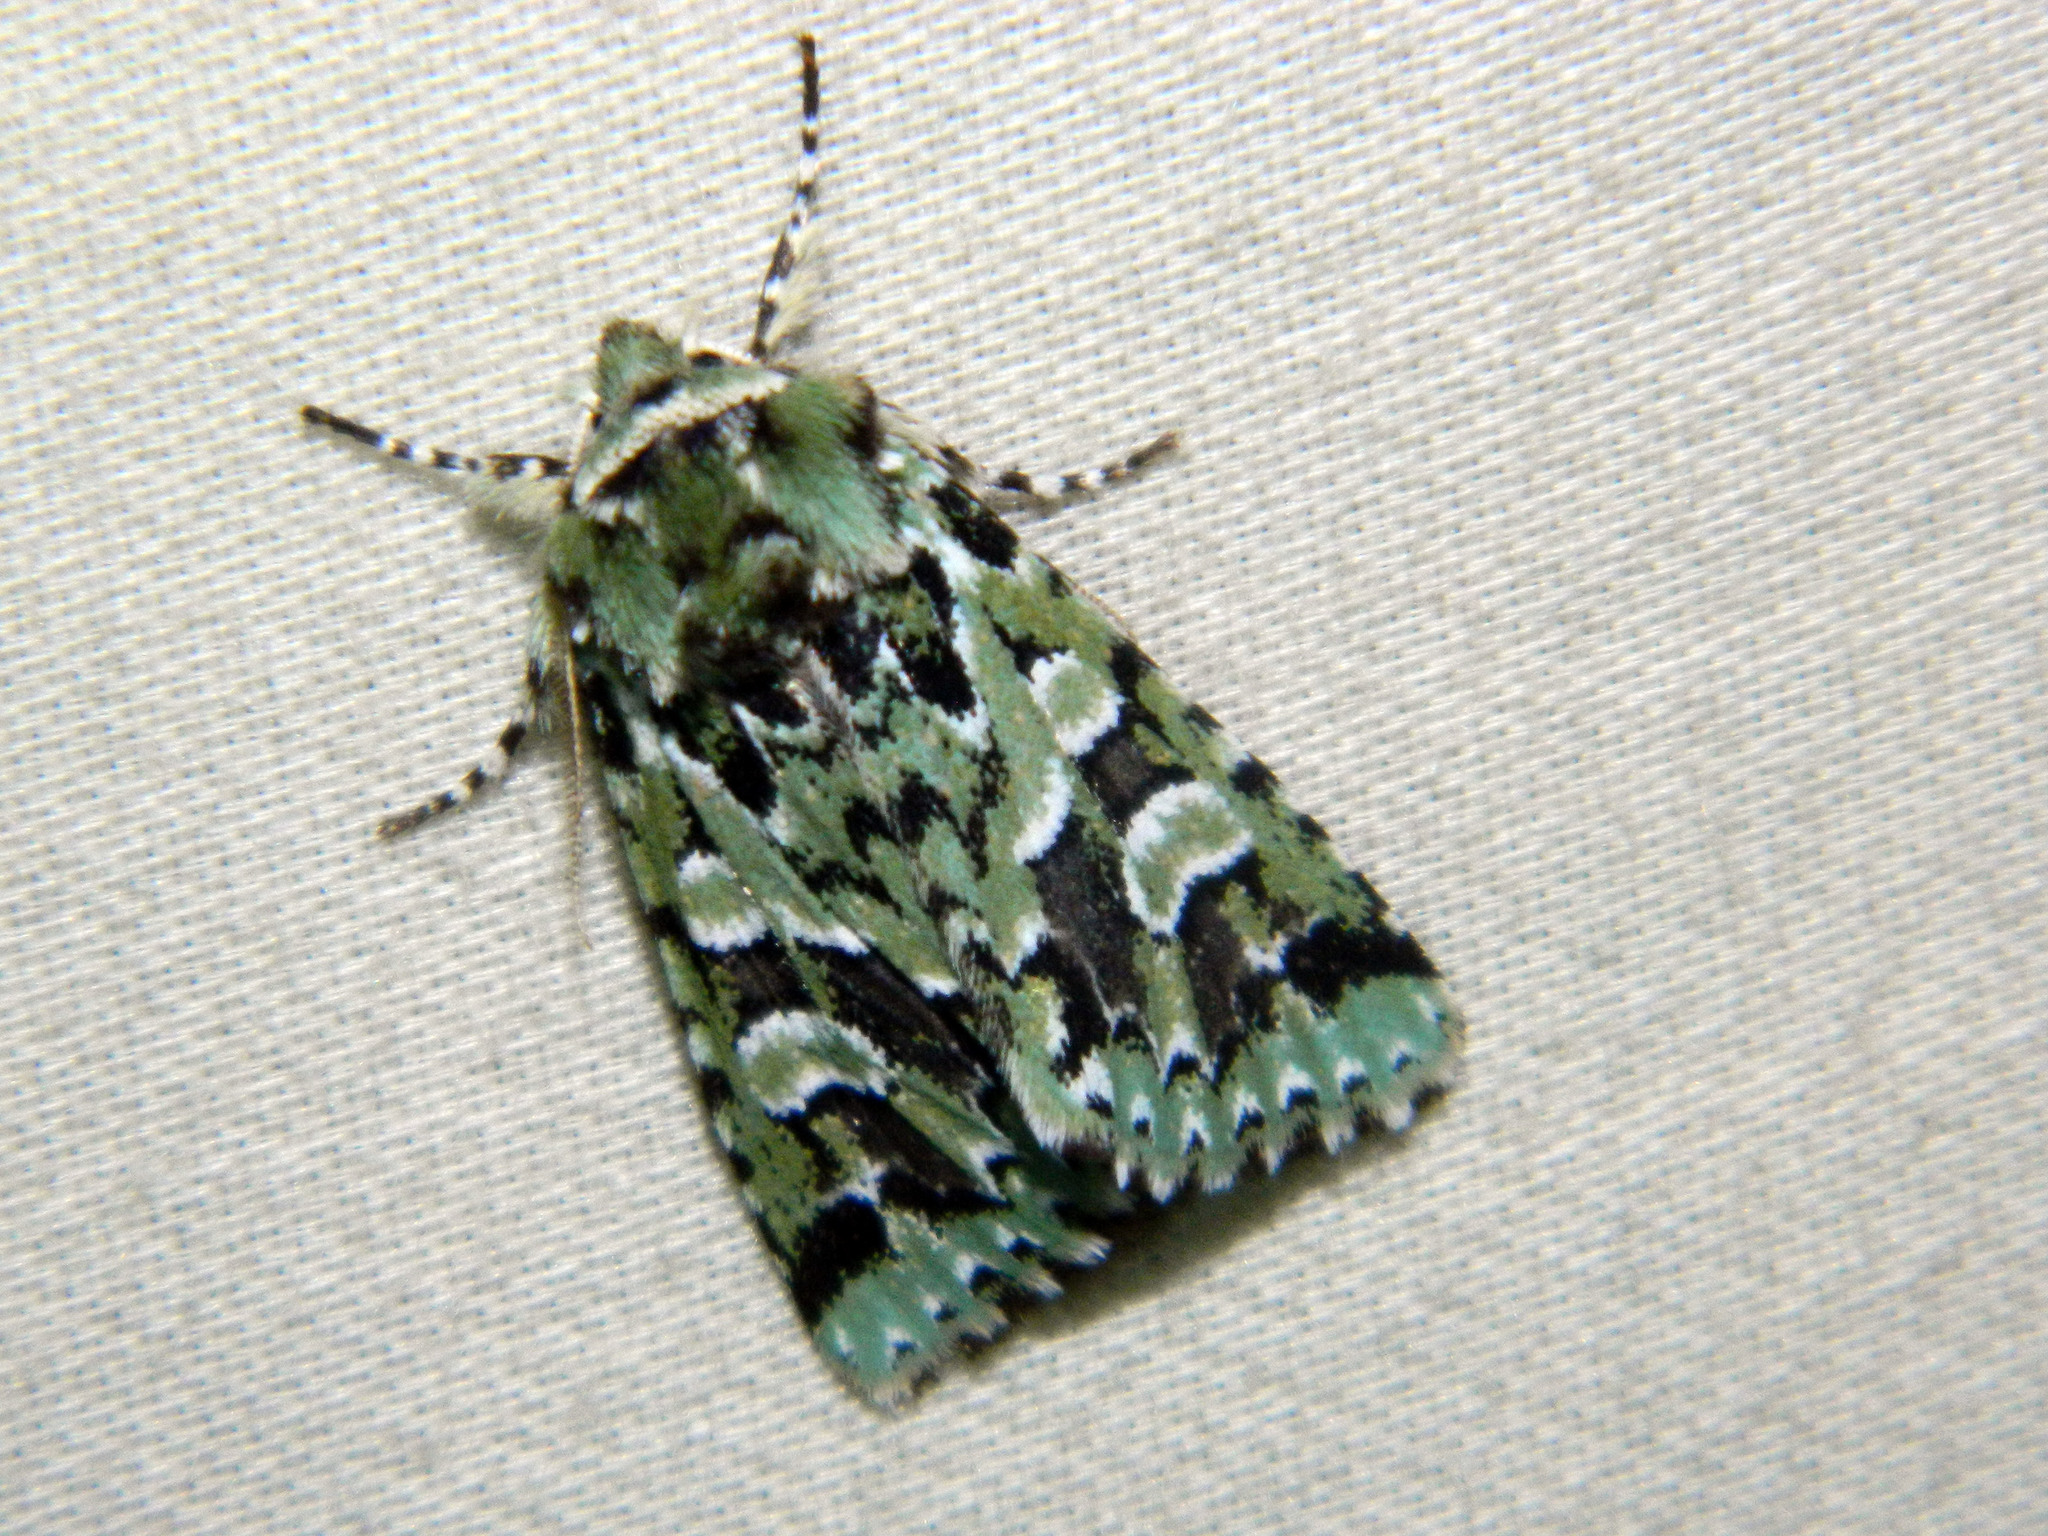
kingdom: Animalia
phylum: Arthropoda
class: Insecta
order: Lepidoptera
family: Noctuidae
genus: Feralia
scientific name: Feralia comstocki
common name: Comstock's sallow
